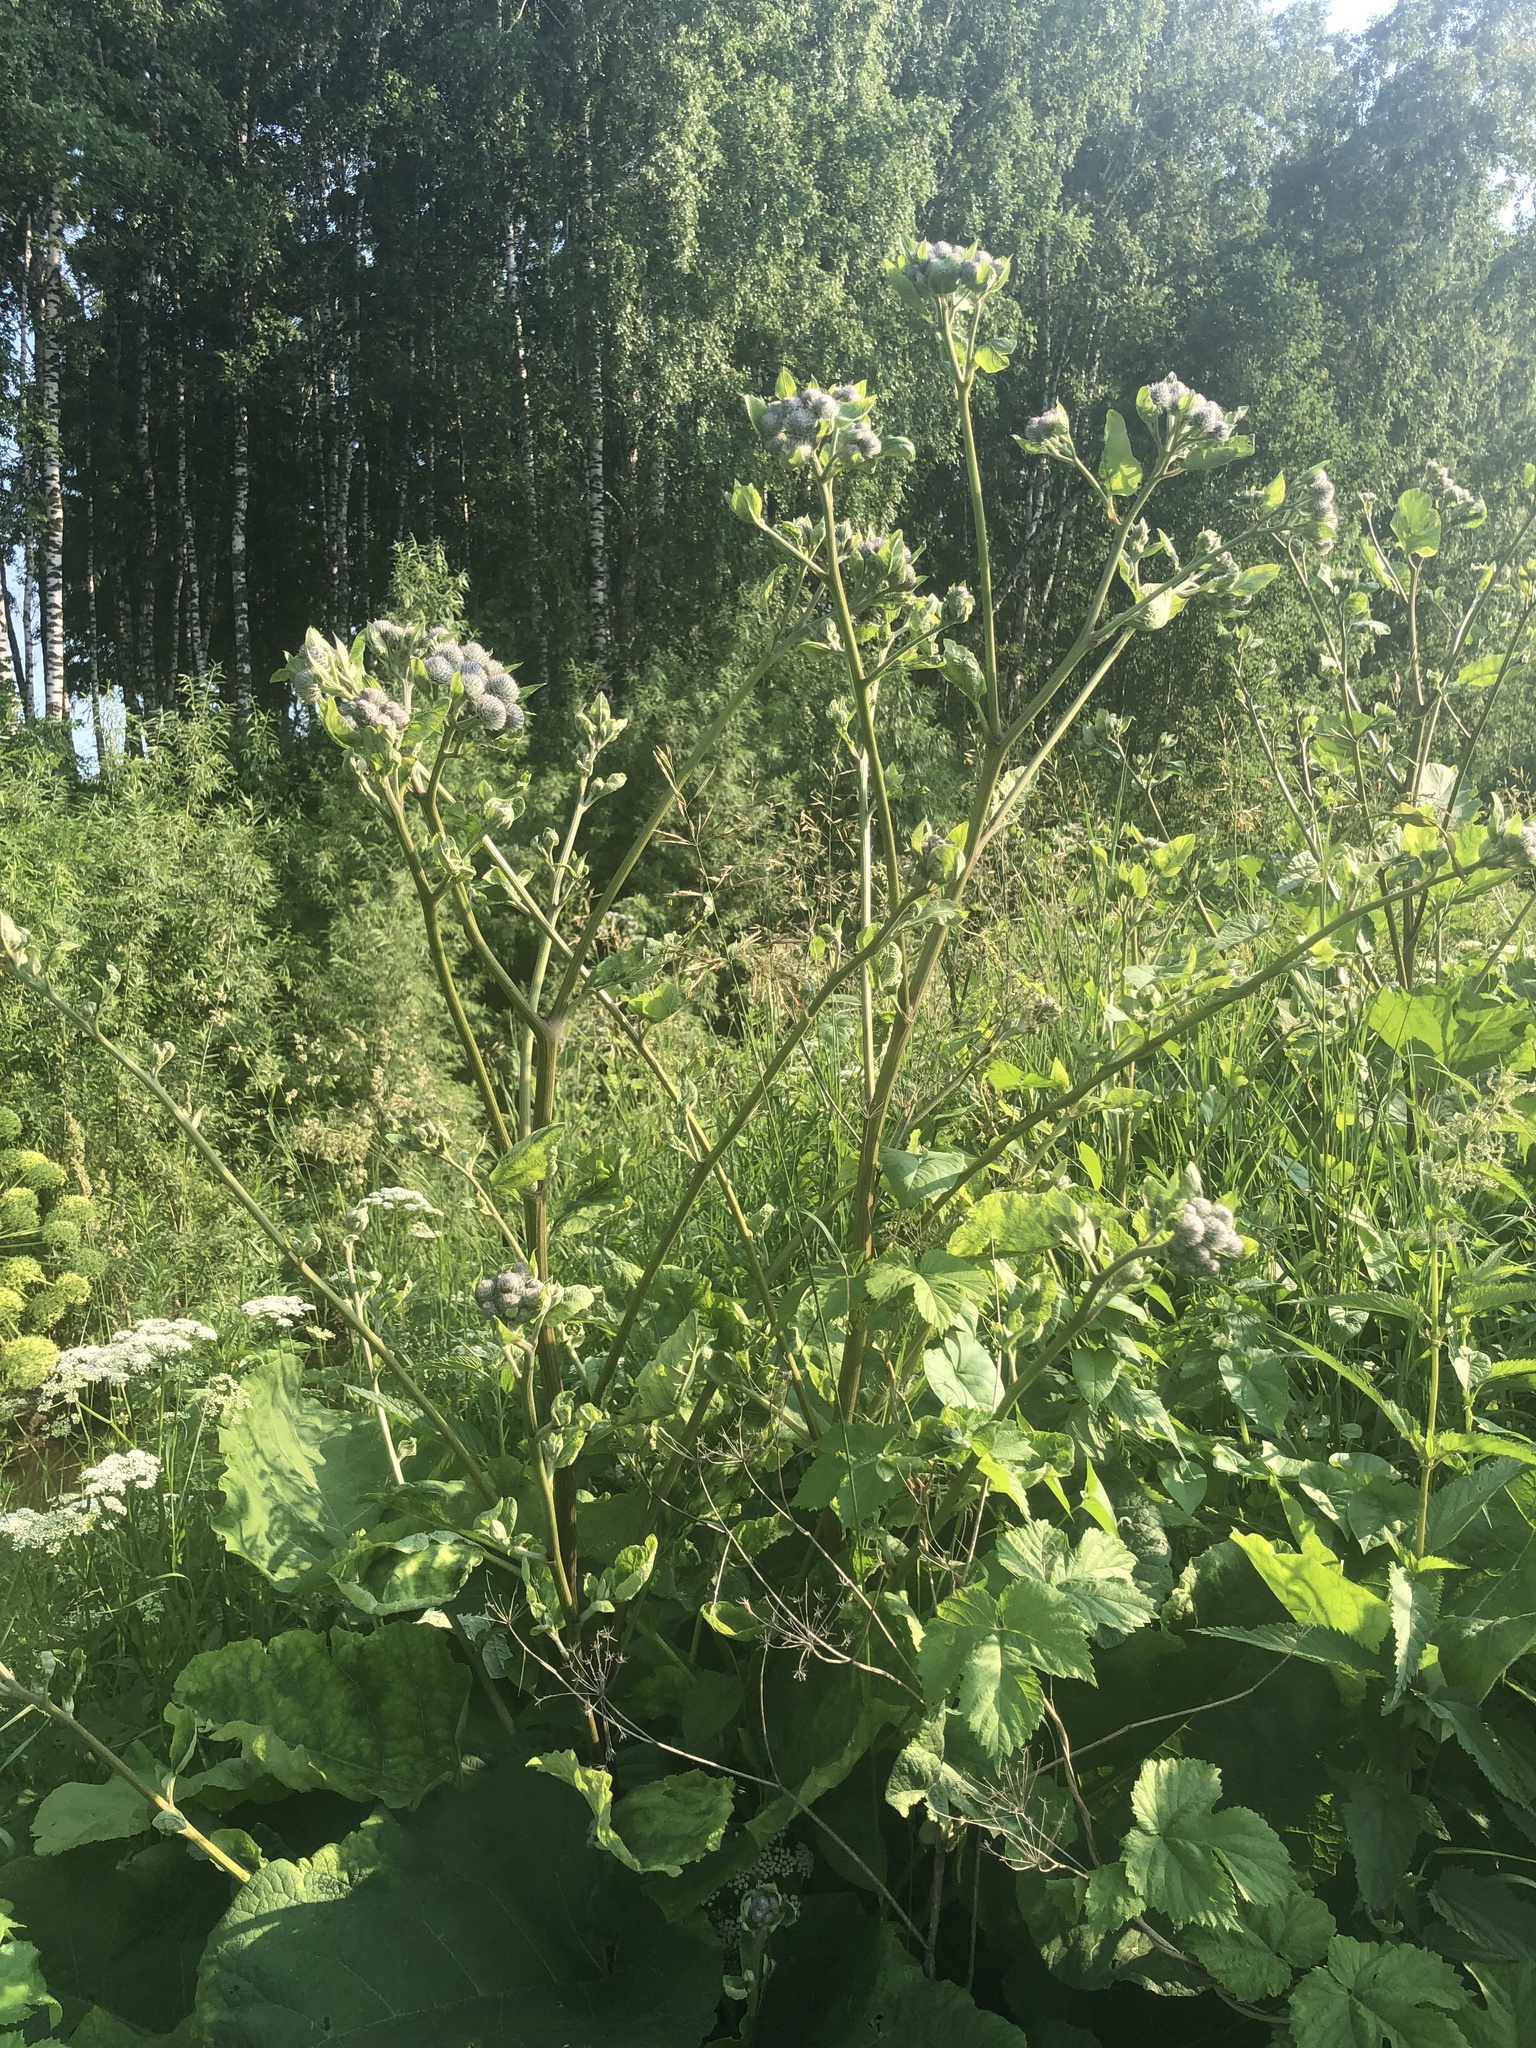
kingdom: Plantae
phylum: Tracheophyta
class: Magnoliopsida
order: Asterales
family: Asteraceae
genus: Arctium
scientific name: Arctium tomentosum
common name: Woolly burdock
